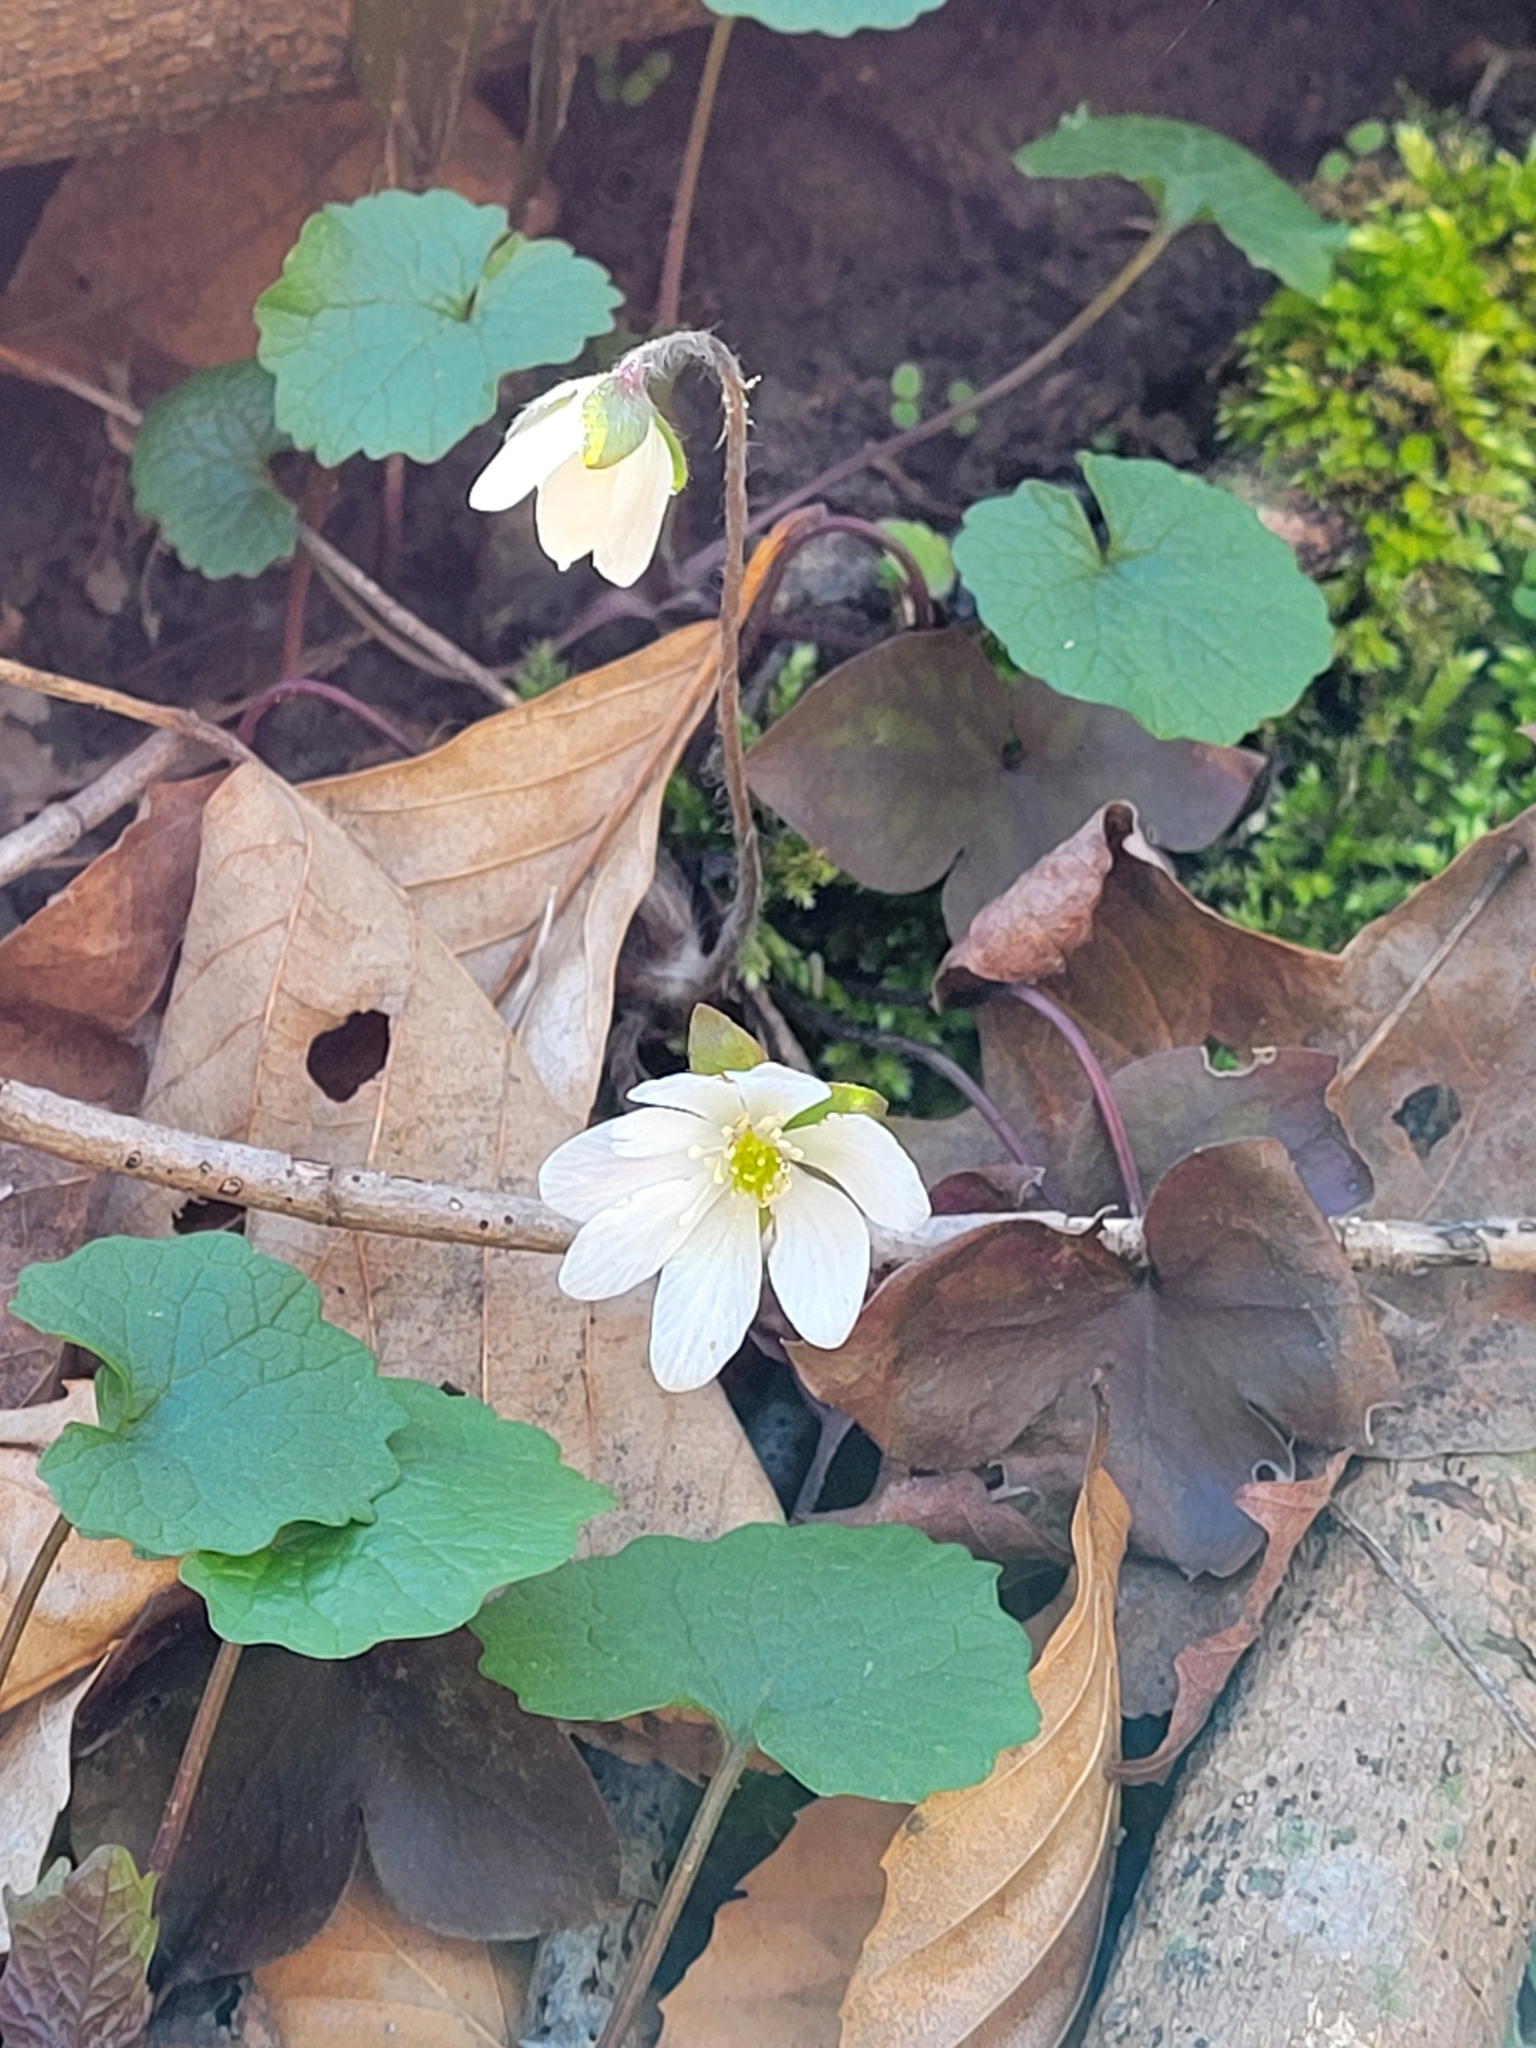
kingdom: Plantae
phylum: Tracheophyta
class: Magnoliopsida
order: Ranunculales
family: Ranunculaceae
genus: Hepatica
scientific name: Hepatica acutiloba
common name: Sharp-lobed hepatica
